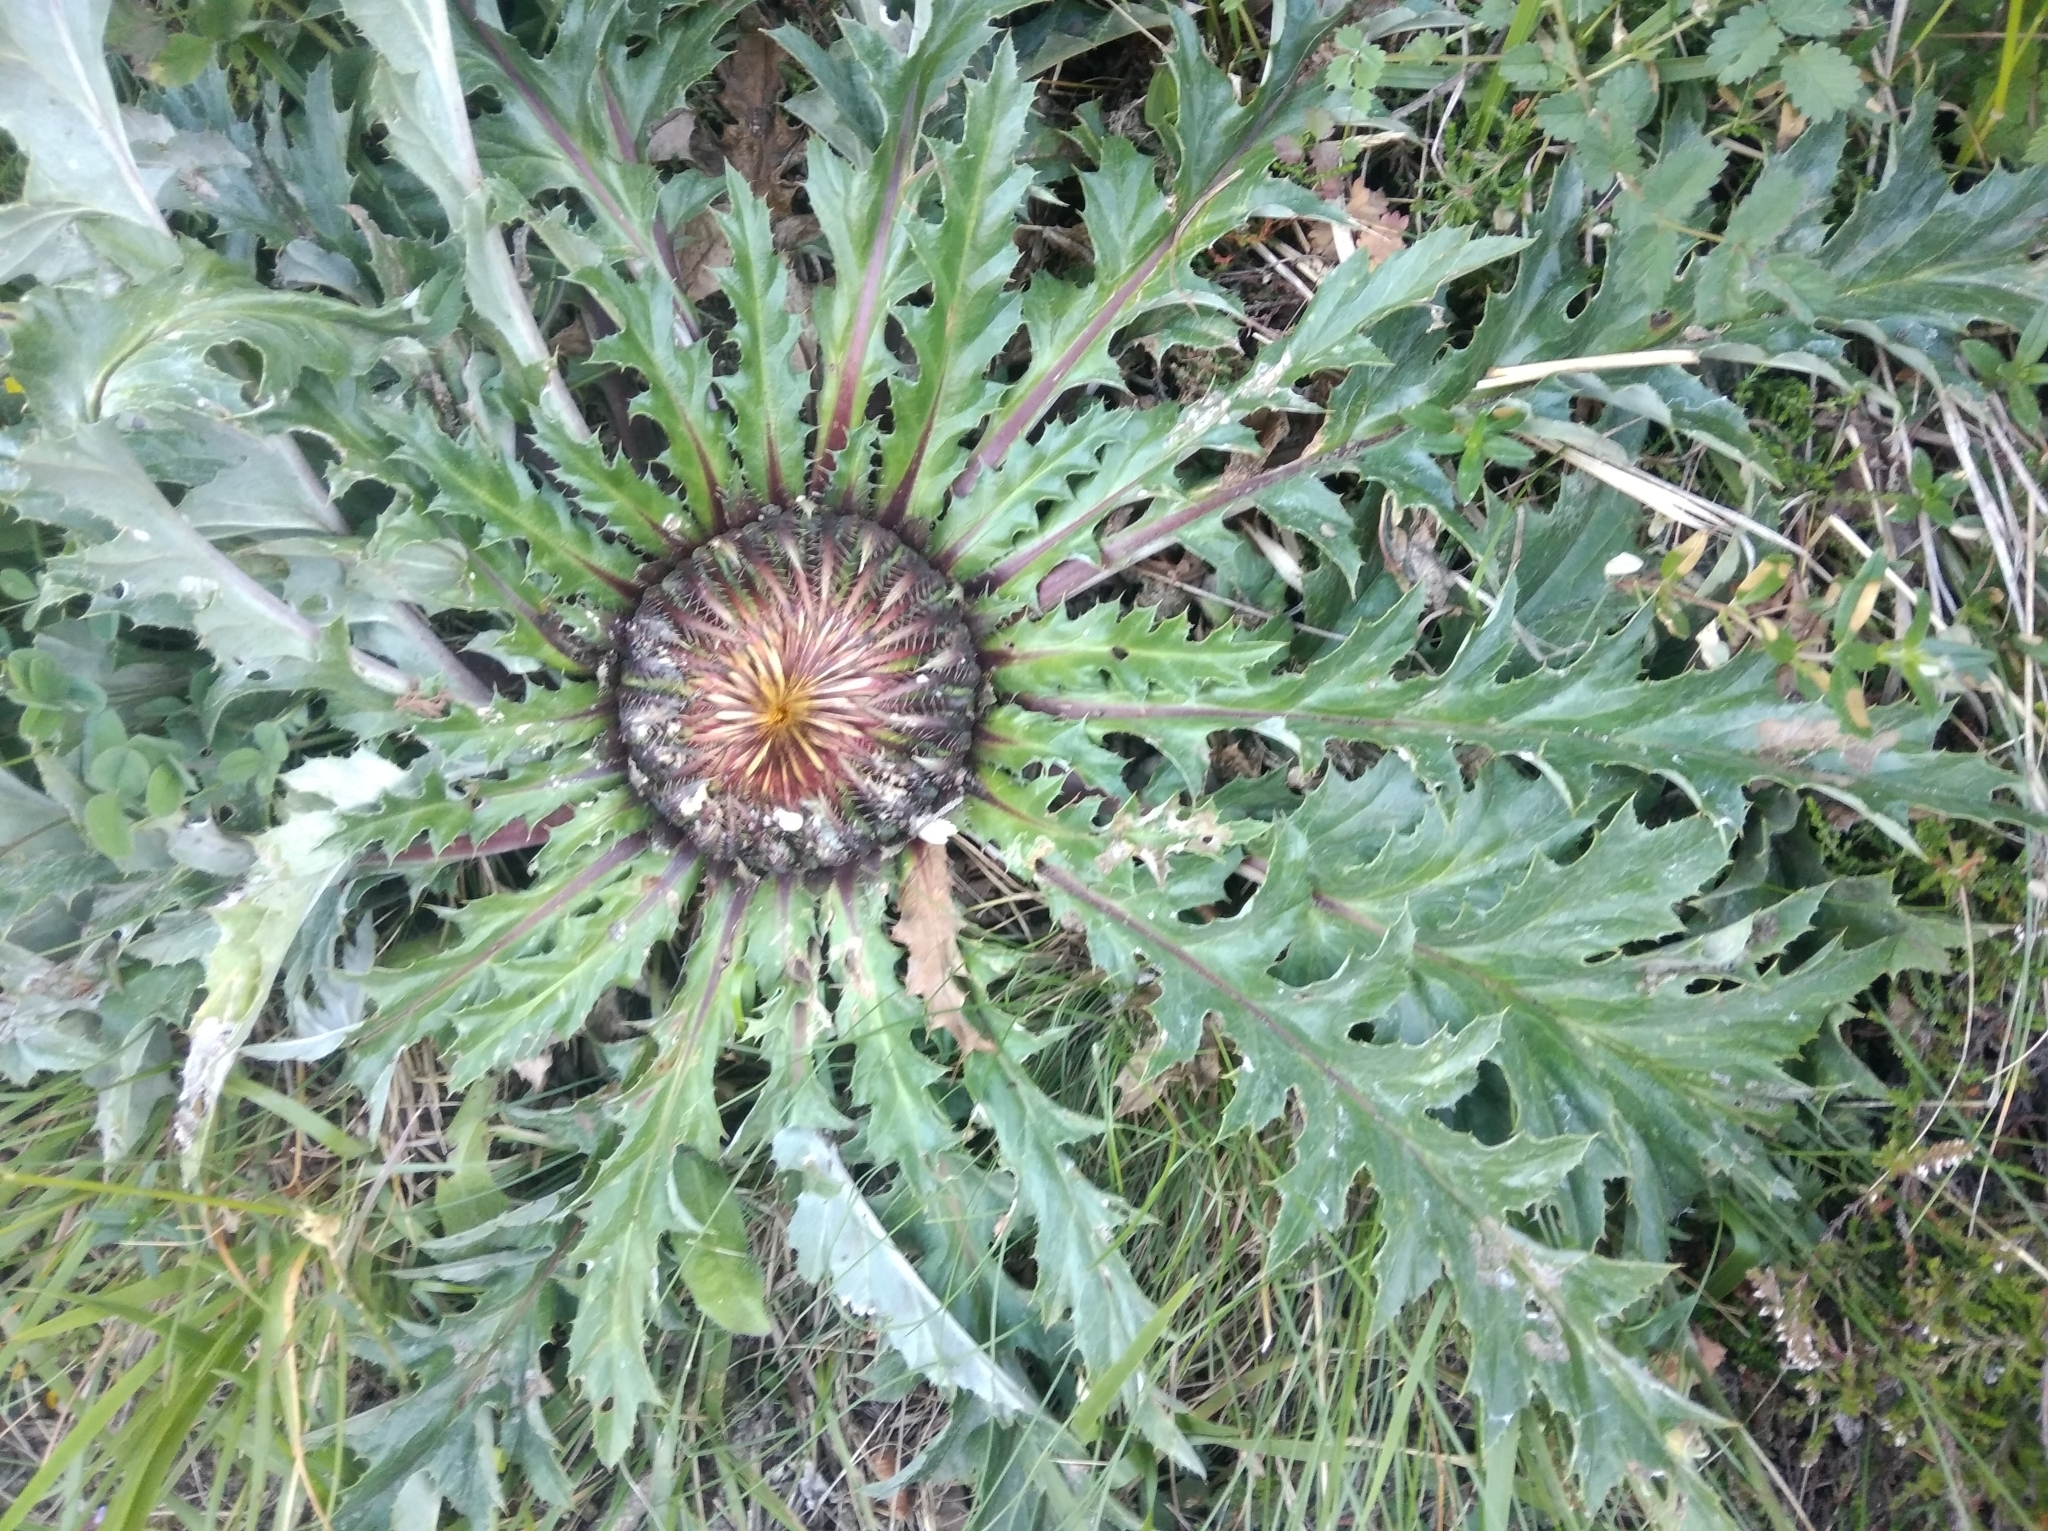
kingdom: Plantae
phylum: Tracheophyta
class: Magnoliopsida
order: Asterales
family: Asteraceae
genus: Carlina
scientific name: Carlina acaulis
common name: Stemless carline thistle
